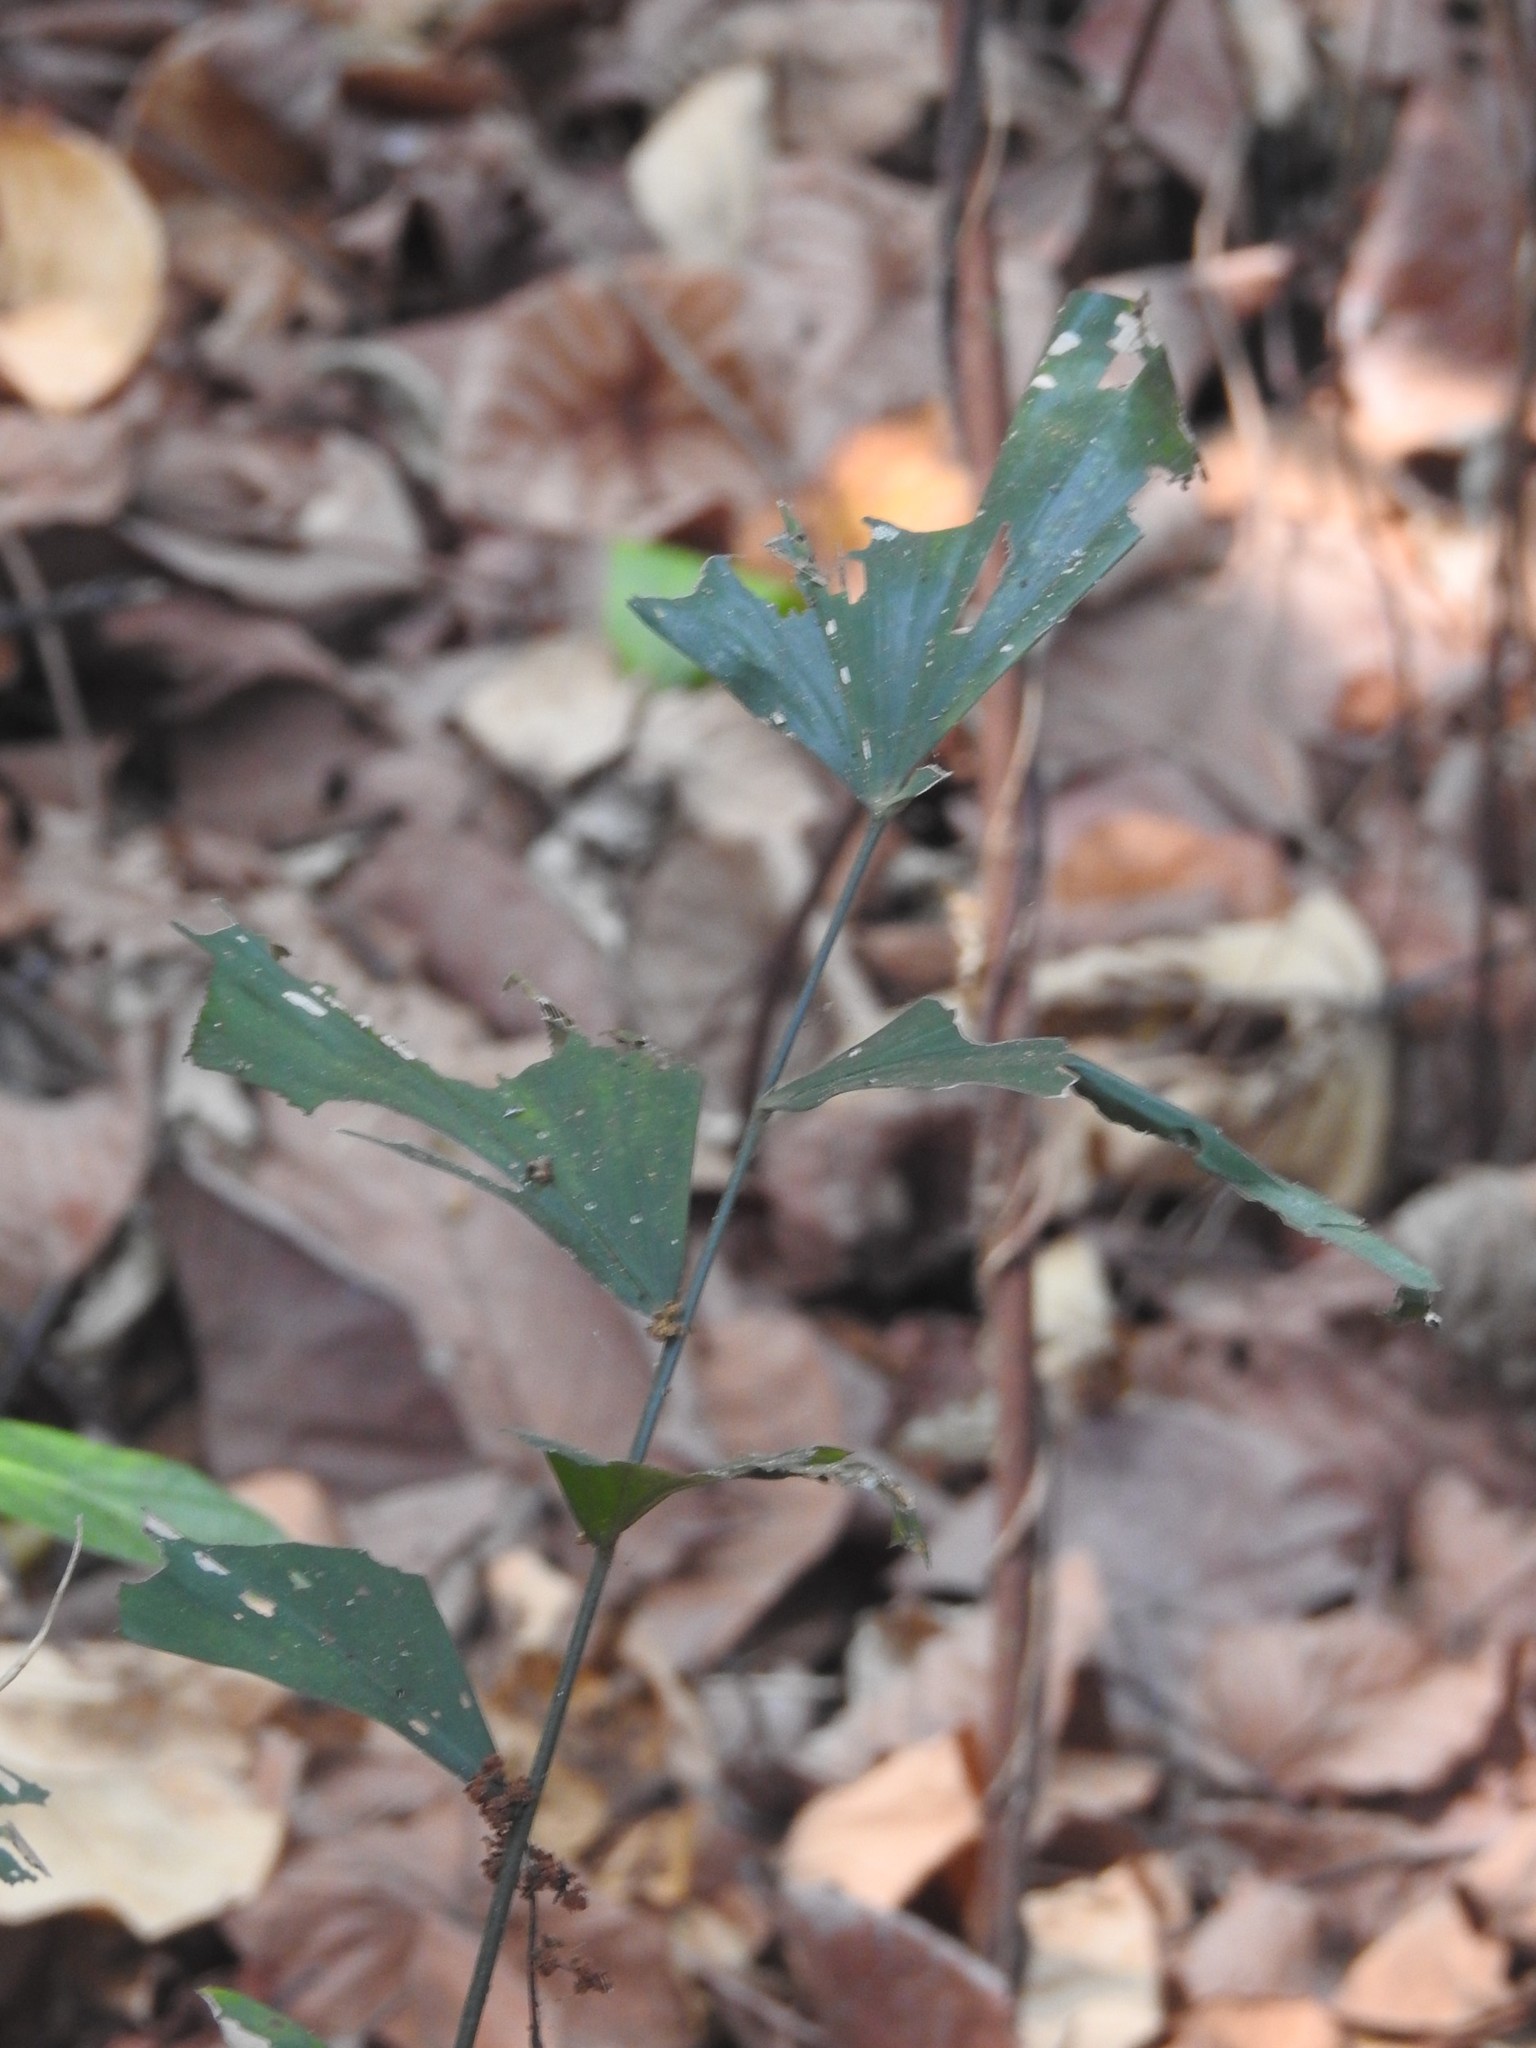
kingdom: Plantae
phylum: Tracheophyta
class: Liliopsida
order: Arecales
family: Arecaceae
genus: Caryota
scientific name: Caryota urens
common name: Jaggery palm
